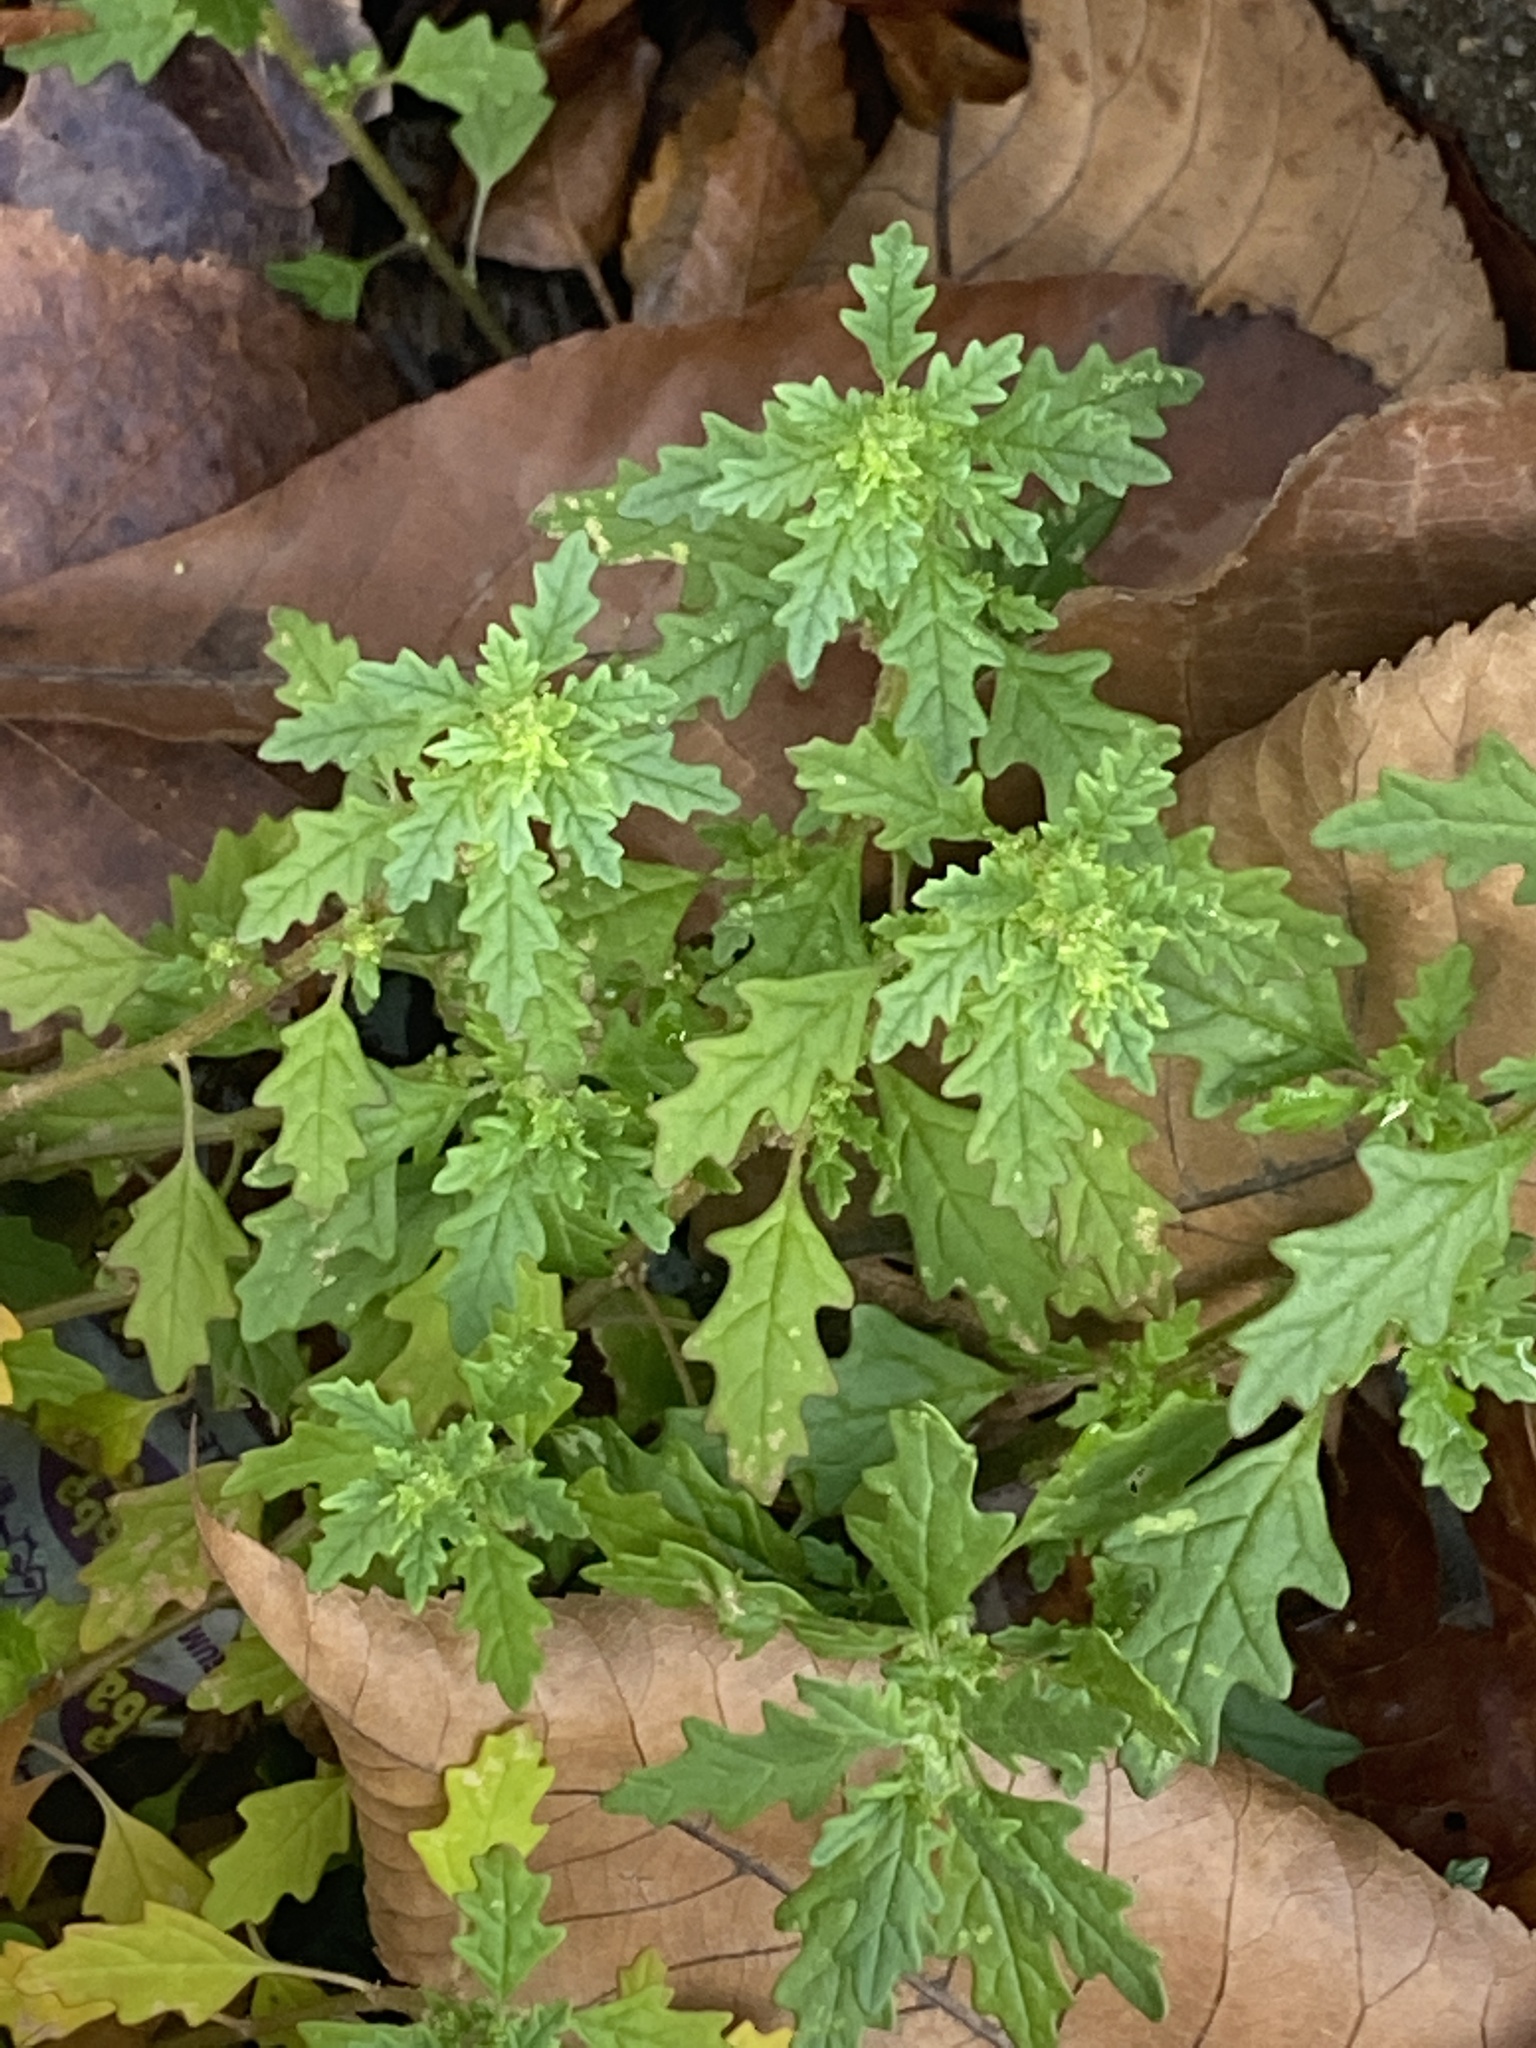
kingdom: Plantae
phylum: Tracheophyta
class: Magnoliopsida
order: Caryophyllales
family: Amaranthaceae
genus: Dysphania
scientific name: Dysphania pumilio
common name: Clammy goosefoot
